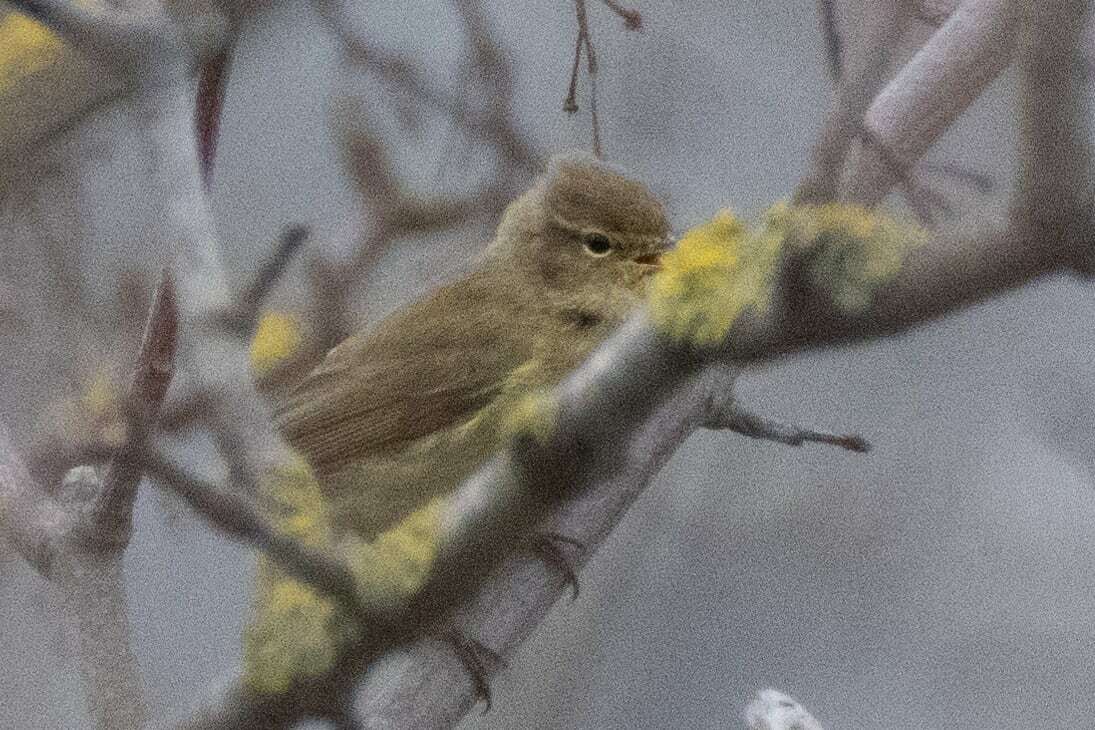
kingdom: Animalia
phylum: Chordata
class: Aves
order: Passeriformes
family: Phylloscopidae
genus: Phylloscopus
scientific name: Phylloscopus collybita
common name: Common chiffchaff
